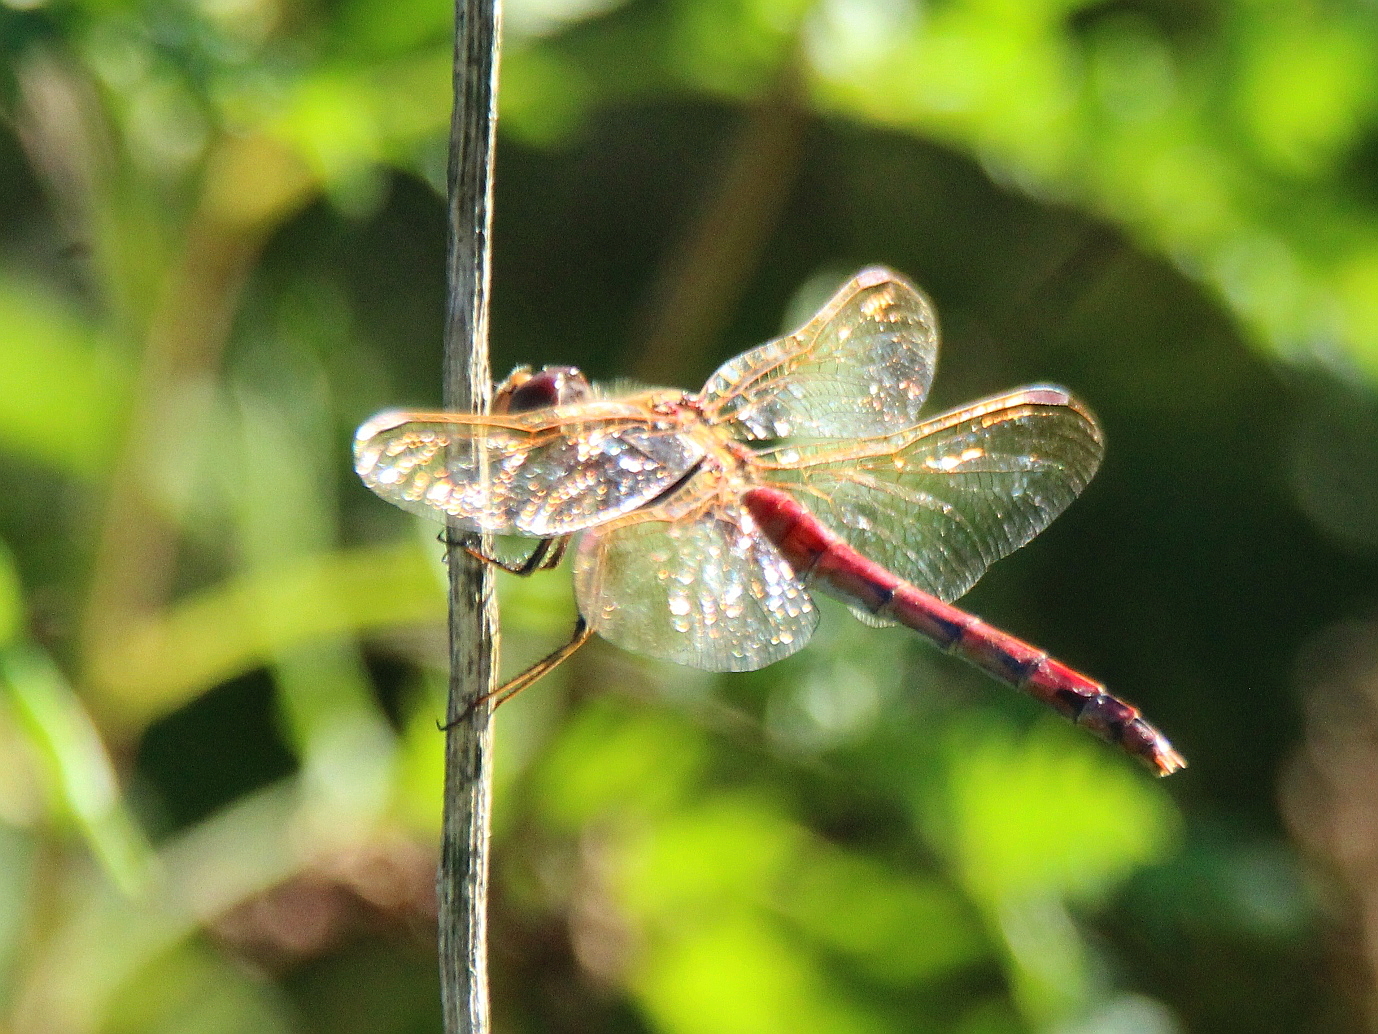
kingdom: Animalia
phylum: Arthropoda
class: Insecta
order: Odonata
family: Libellulidae
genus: Sympetrum
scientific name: Sympetrum striolatum
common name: Common darter
